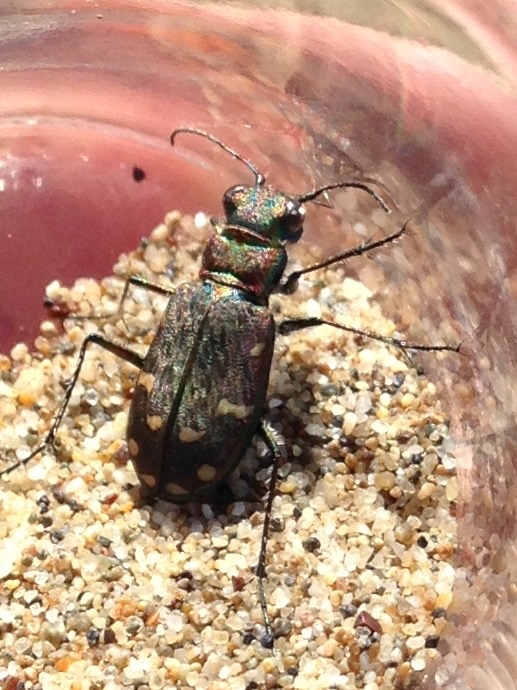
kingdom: Animalia
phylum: Arthropoda
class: Insecta
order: Coleoptera
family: Carabidae
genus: Cicindela
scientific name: Cicindela oregona
